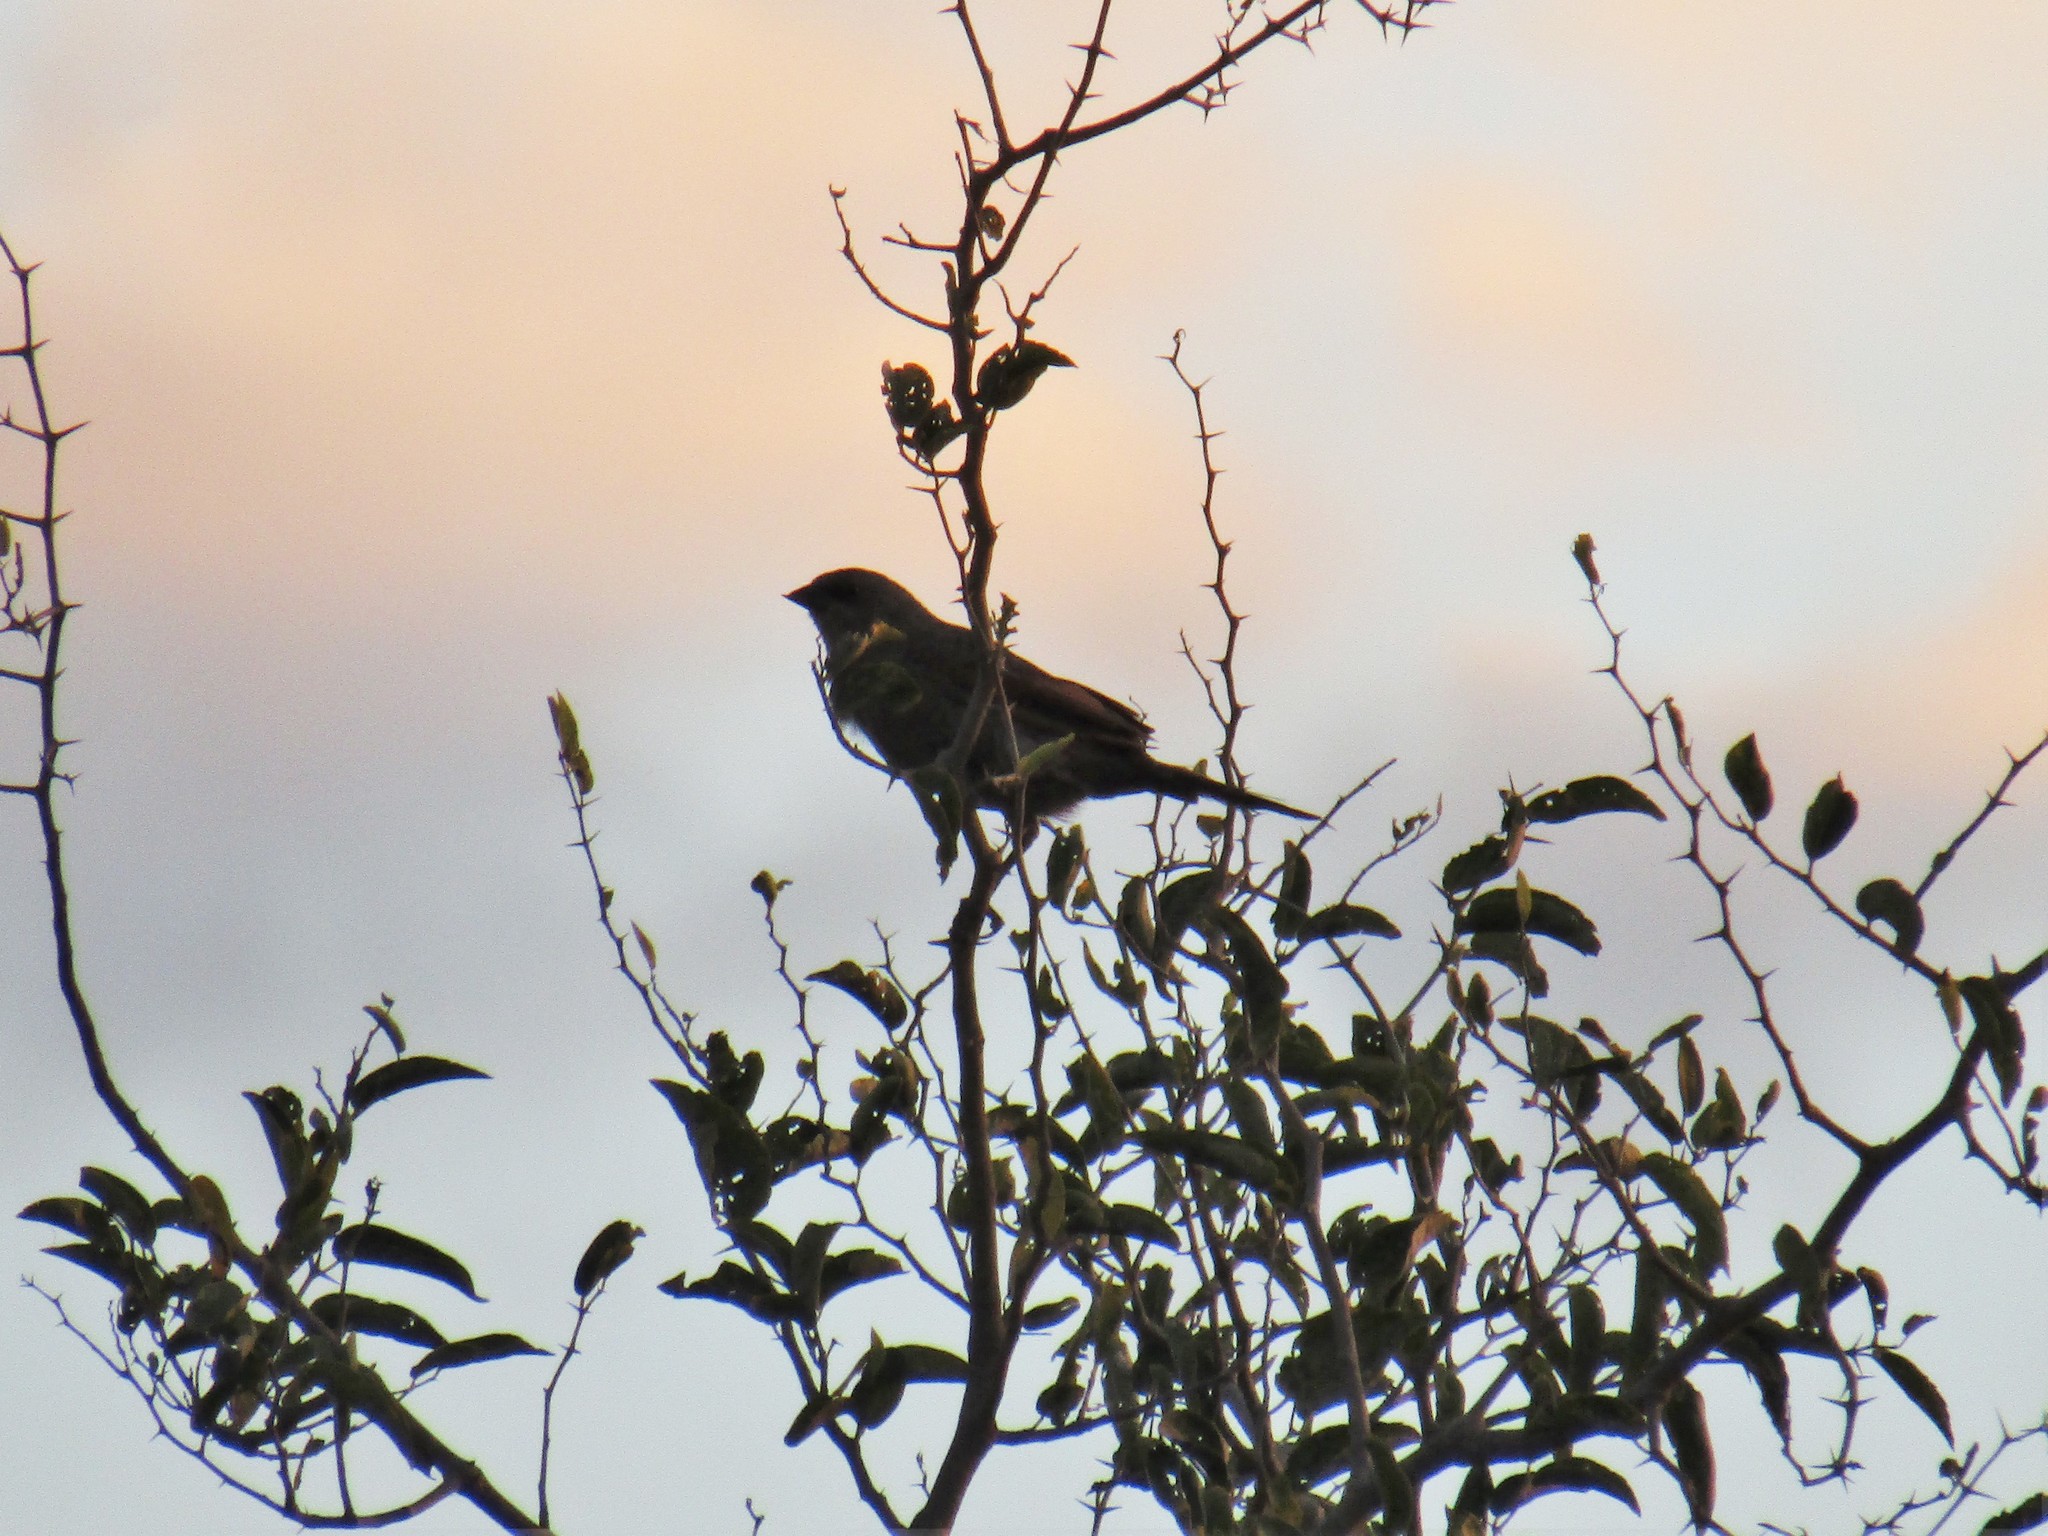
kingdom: Animalia
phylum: Chordata
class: Aves
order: Passeriformes
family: Icteridae
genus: Agelaioides
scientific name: Agelaioides badius
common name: Baywing
